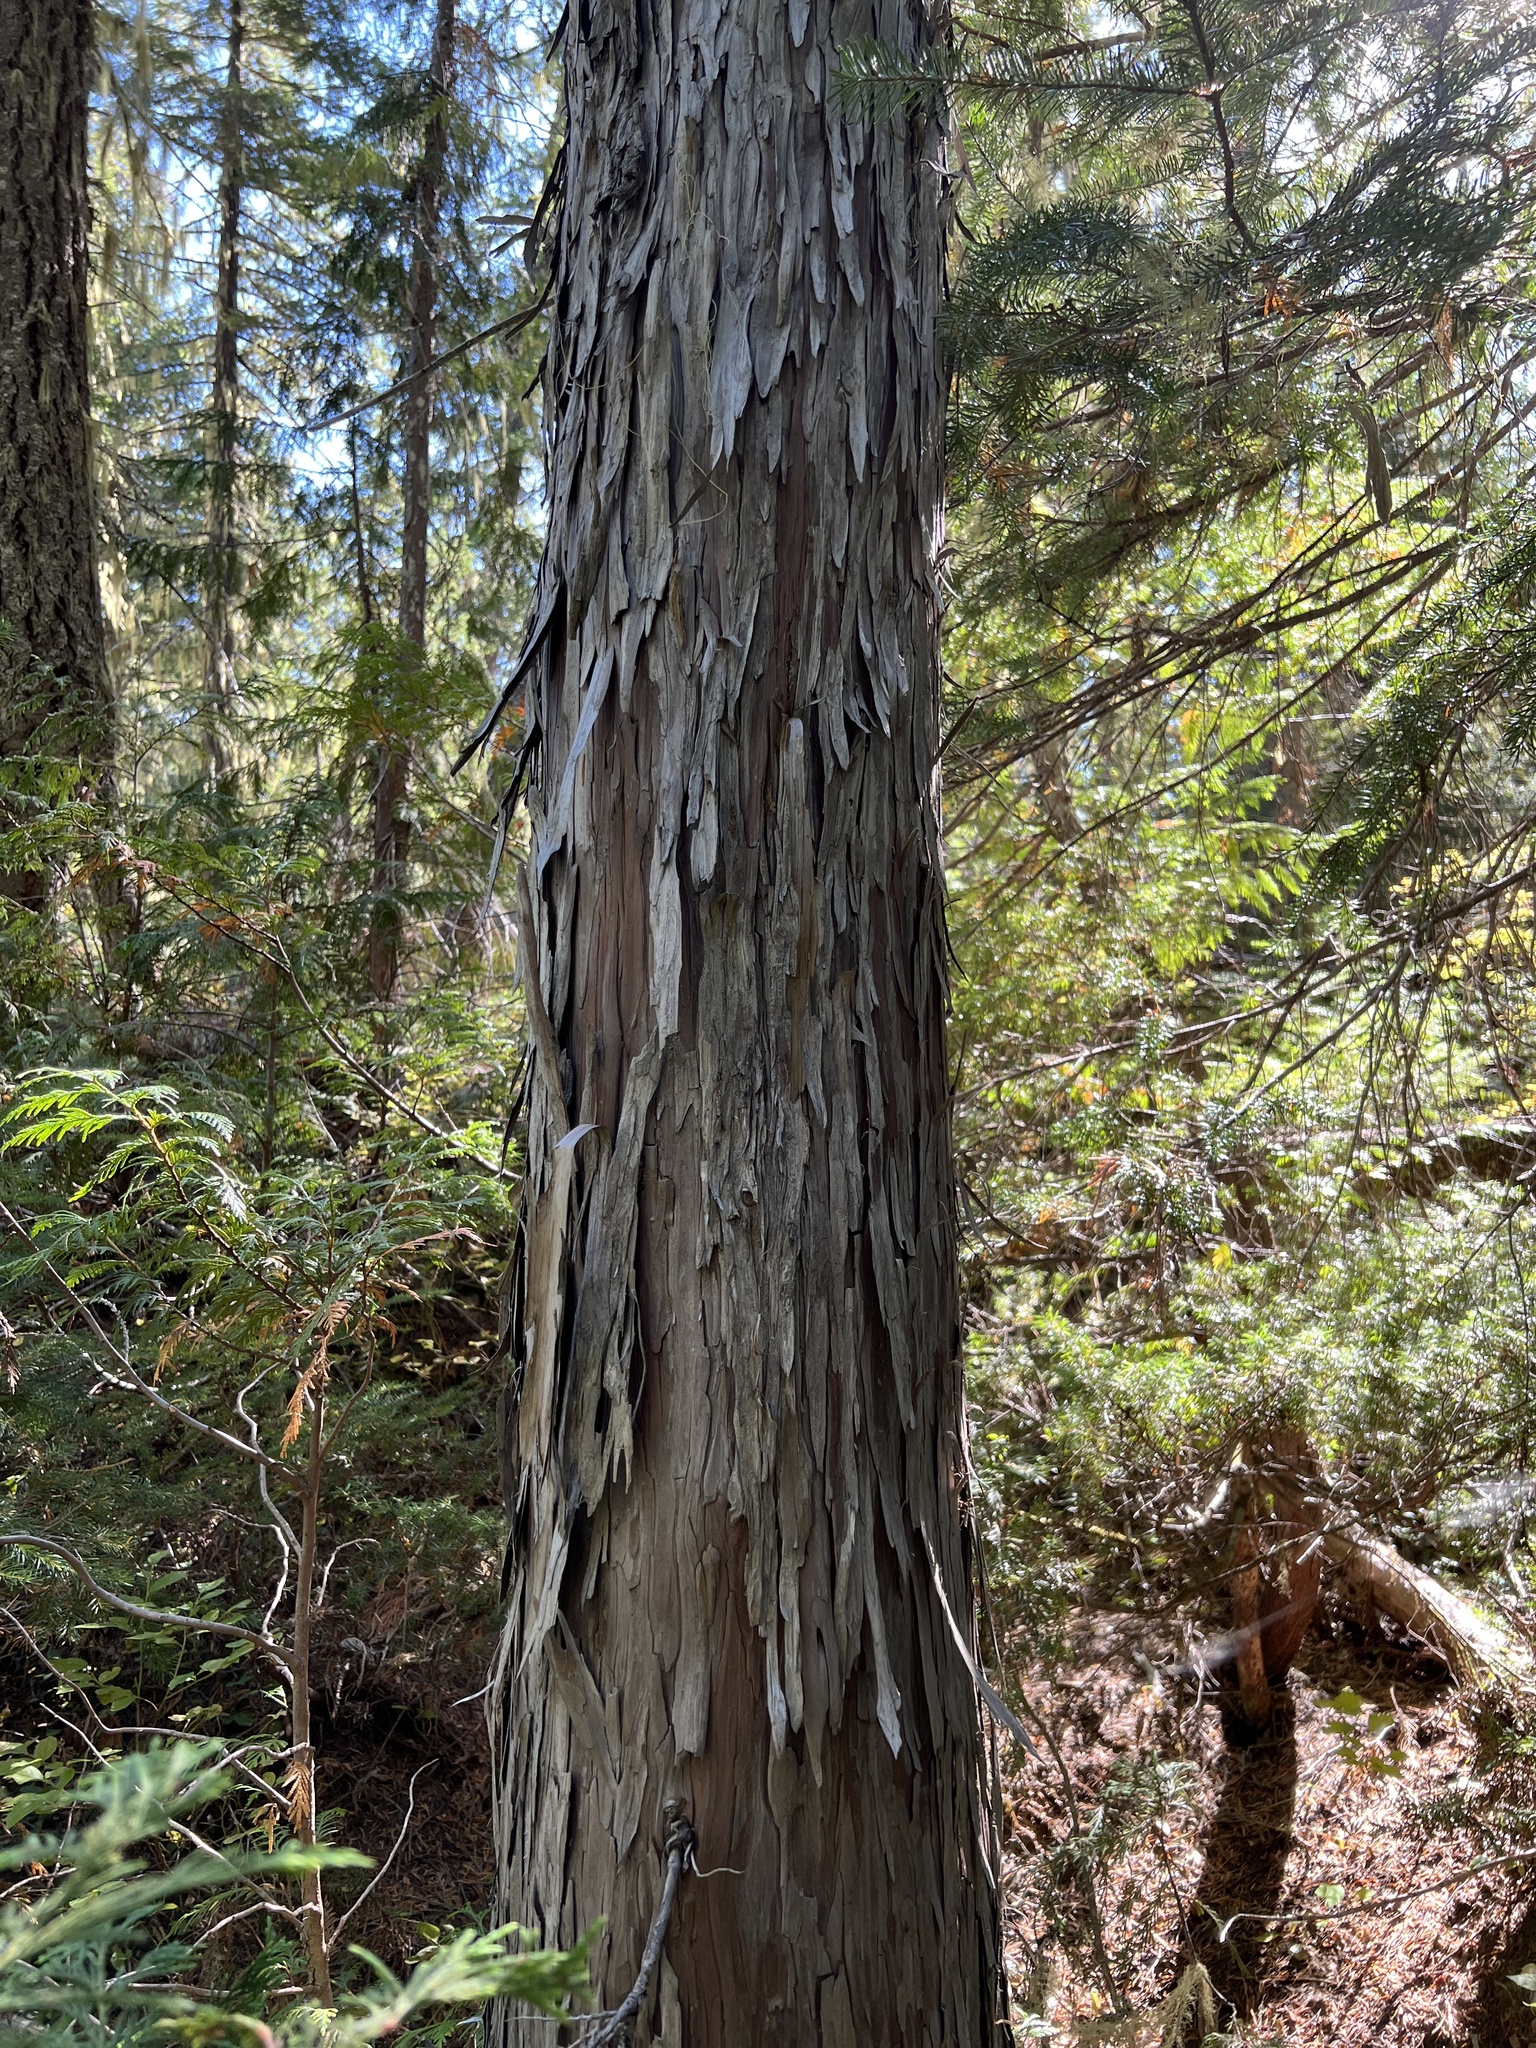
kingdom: Plantae
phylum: Tracheophyta
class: Pinopsida
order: Pinales
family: Cupressaceae
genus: Xanthocyparis
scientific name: Xanthocyparis nootkatensis
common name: Nootka cypress
